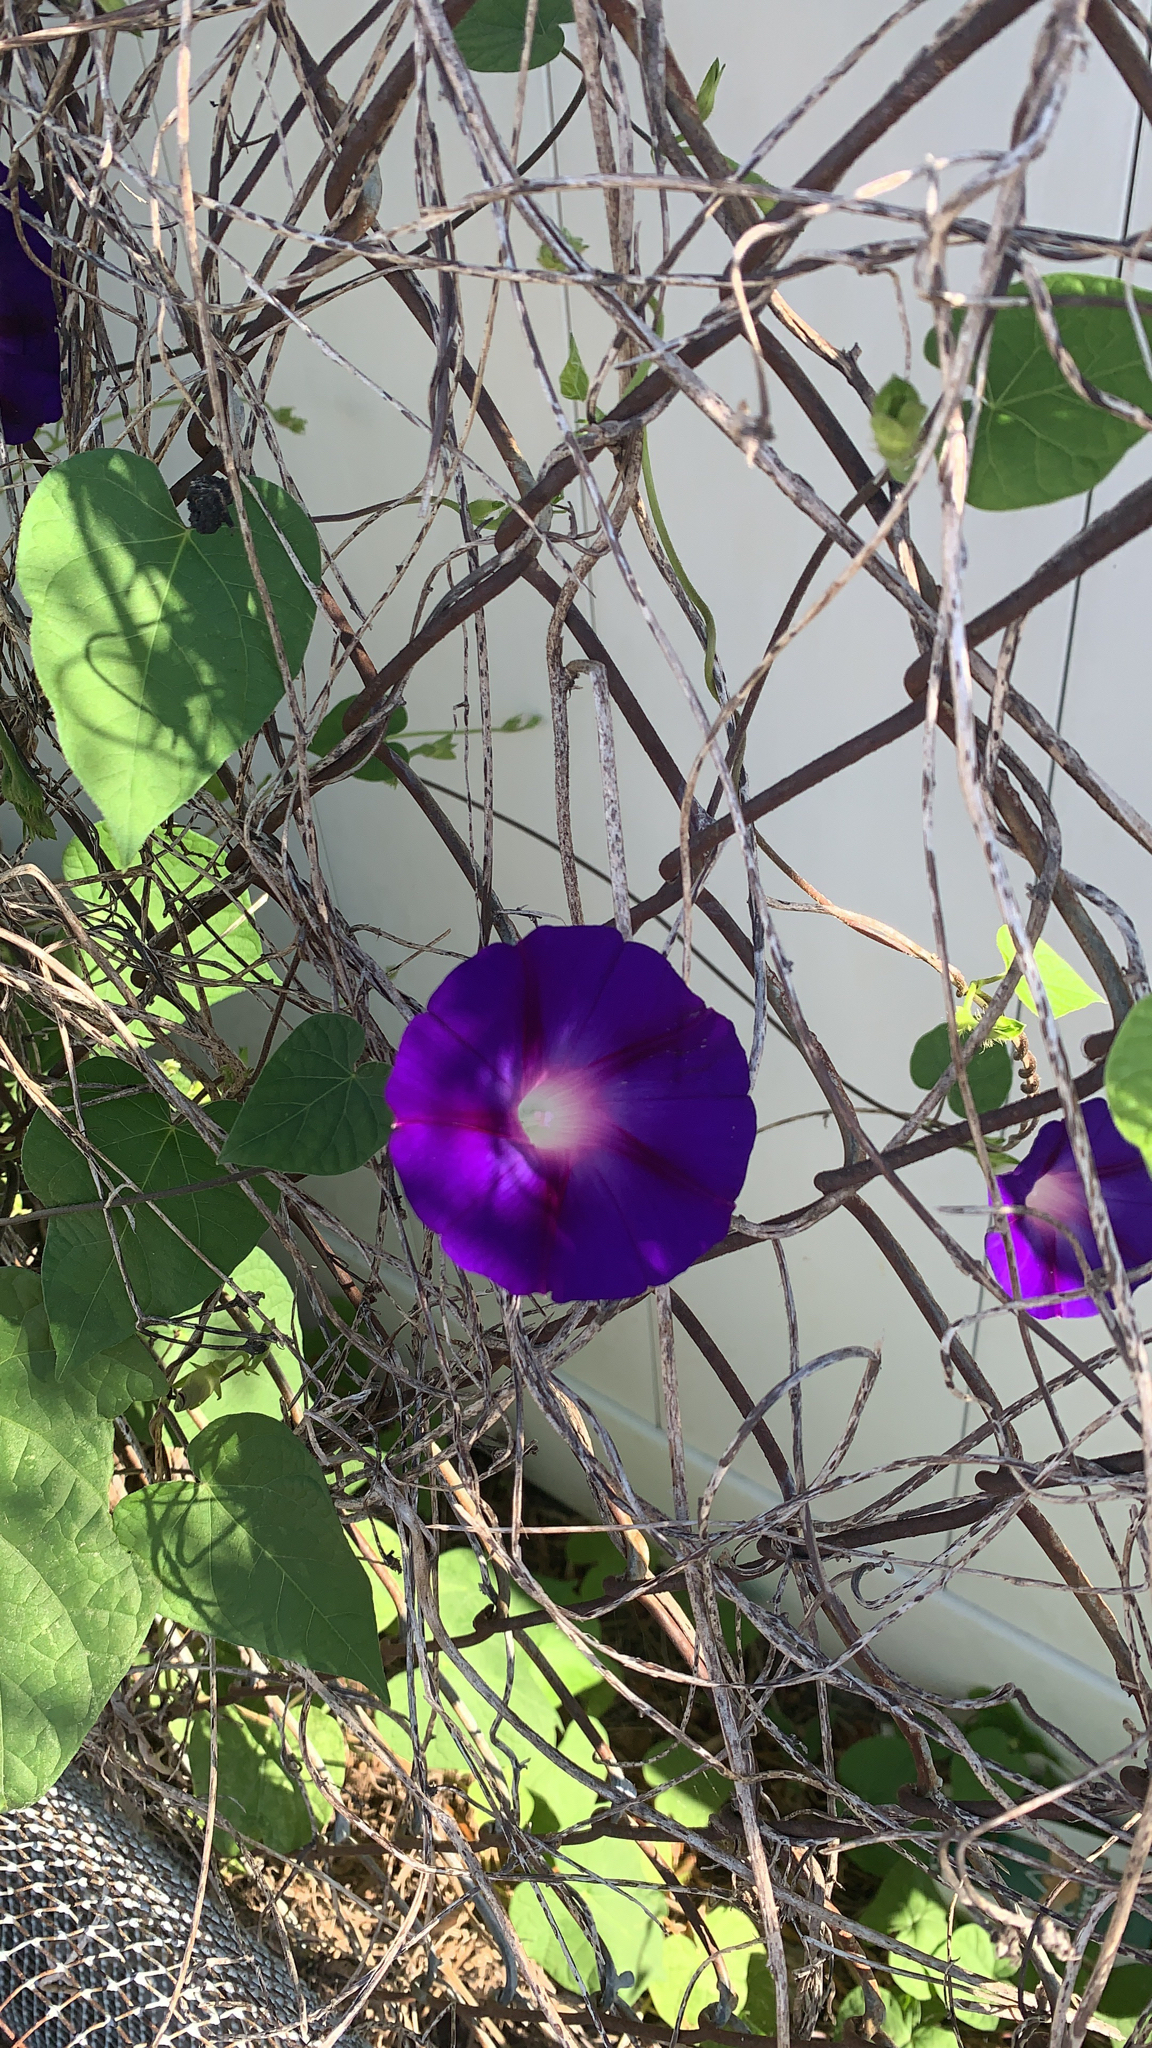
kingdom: Plantae
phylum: Tracheophyta
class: Magnoliopsida
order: Solanales
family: Convolvulaceae
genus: Ipomoea
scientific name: Ipomoea purpurea
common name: Common morning-glory
